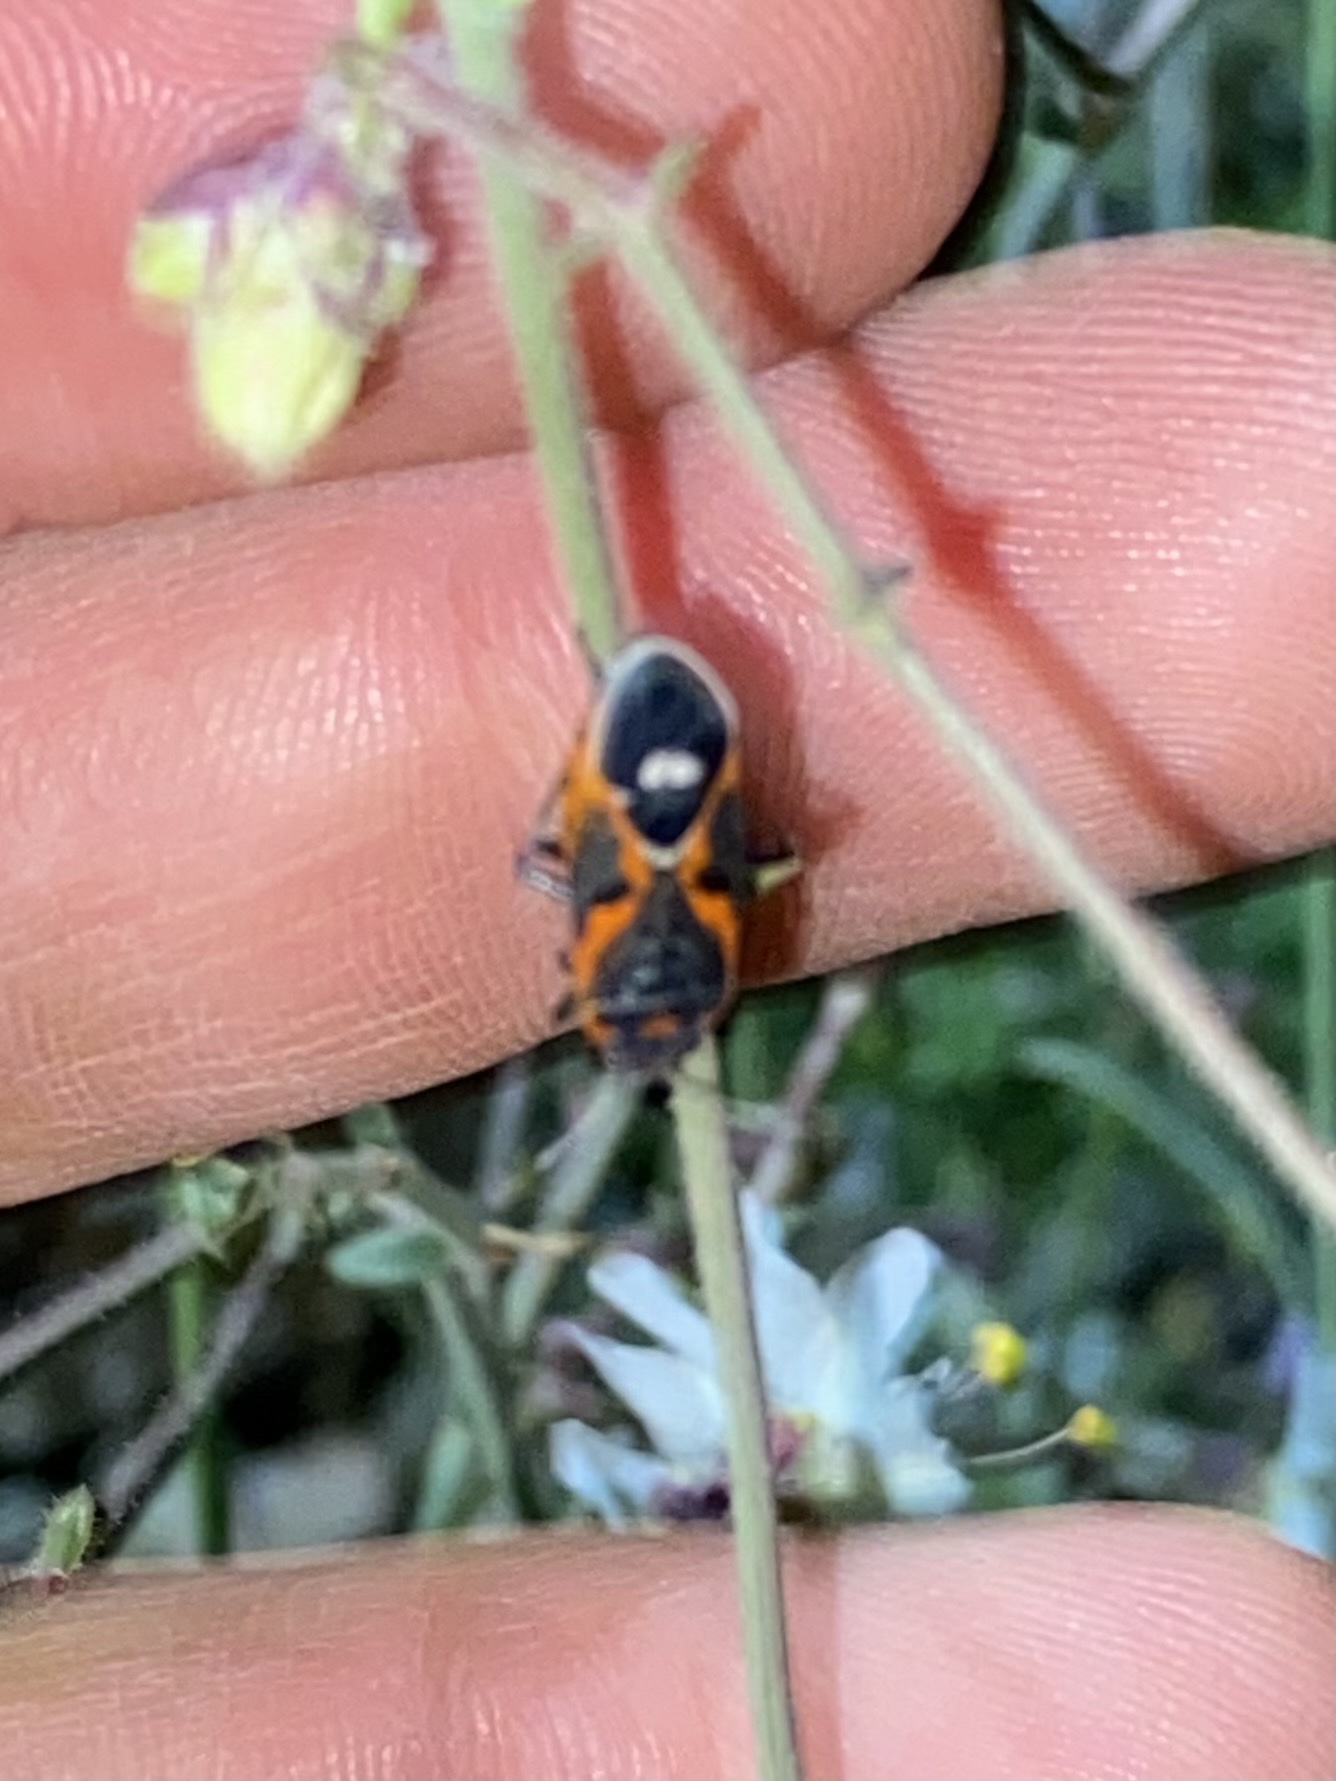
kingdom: Animalia
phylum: Arthropoda
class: Insecta
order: Hemiptera
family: Lygaeidae
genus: Lygaeus
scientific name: Lygaeus kalmii
